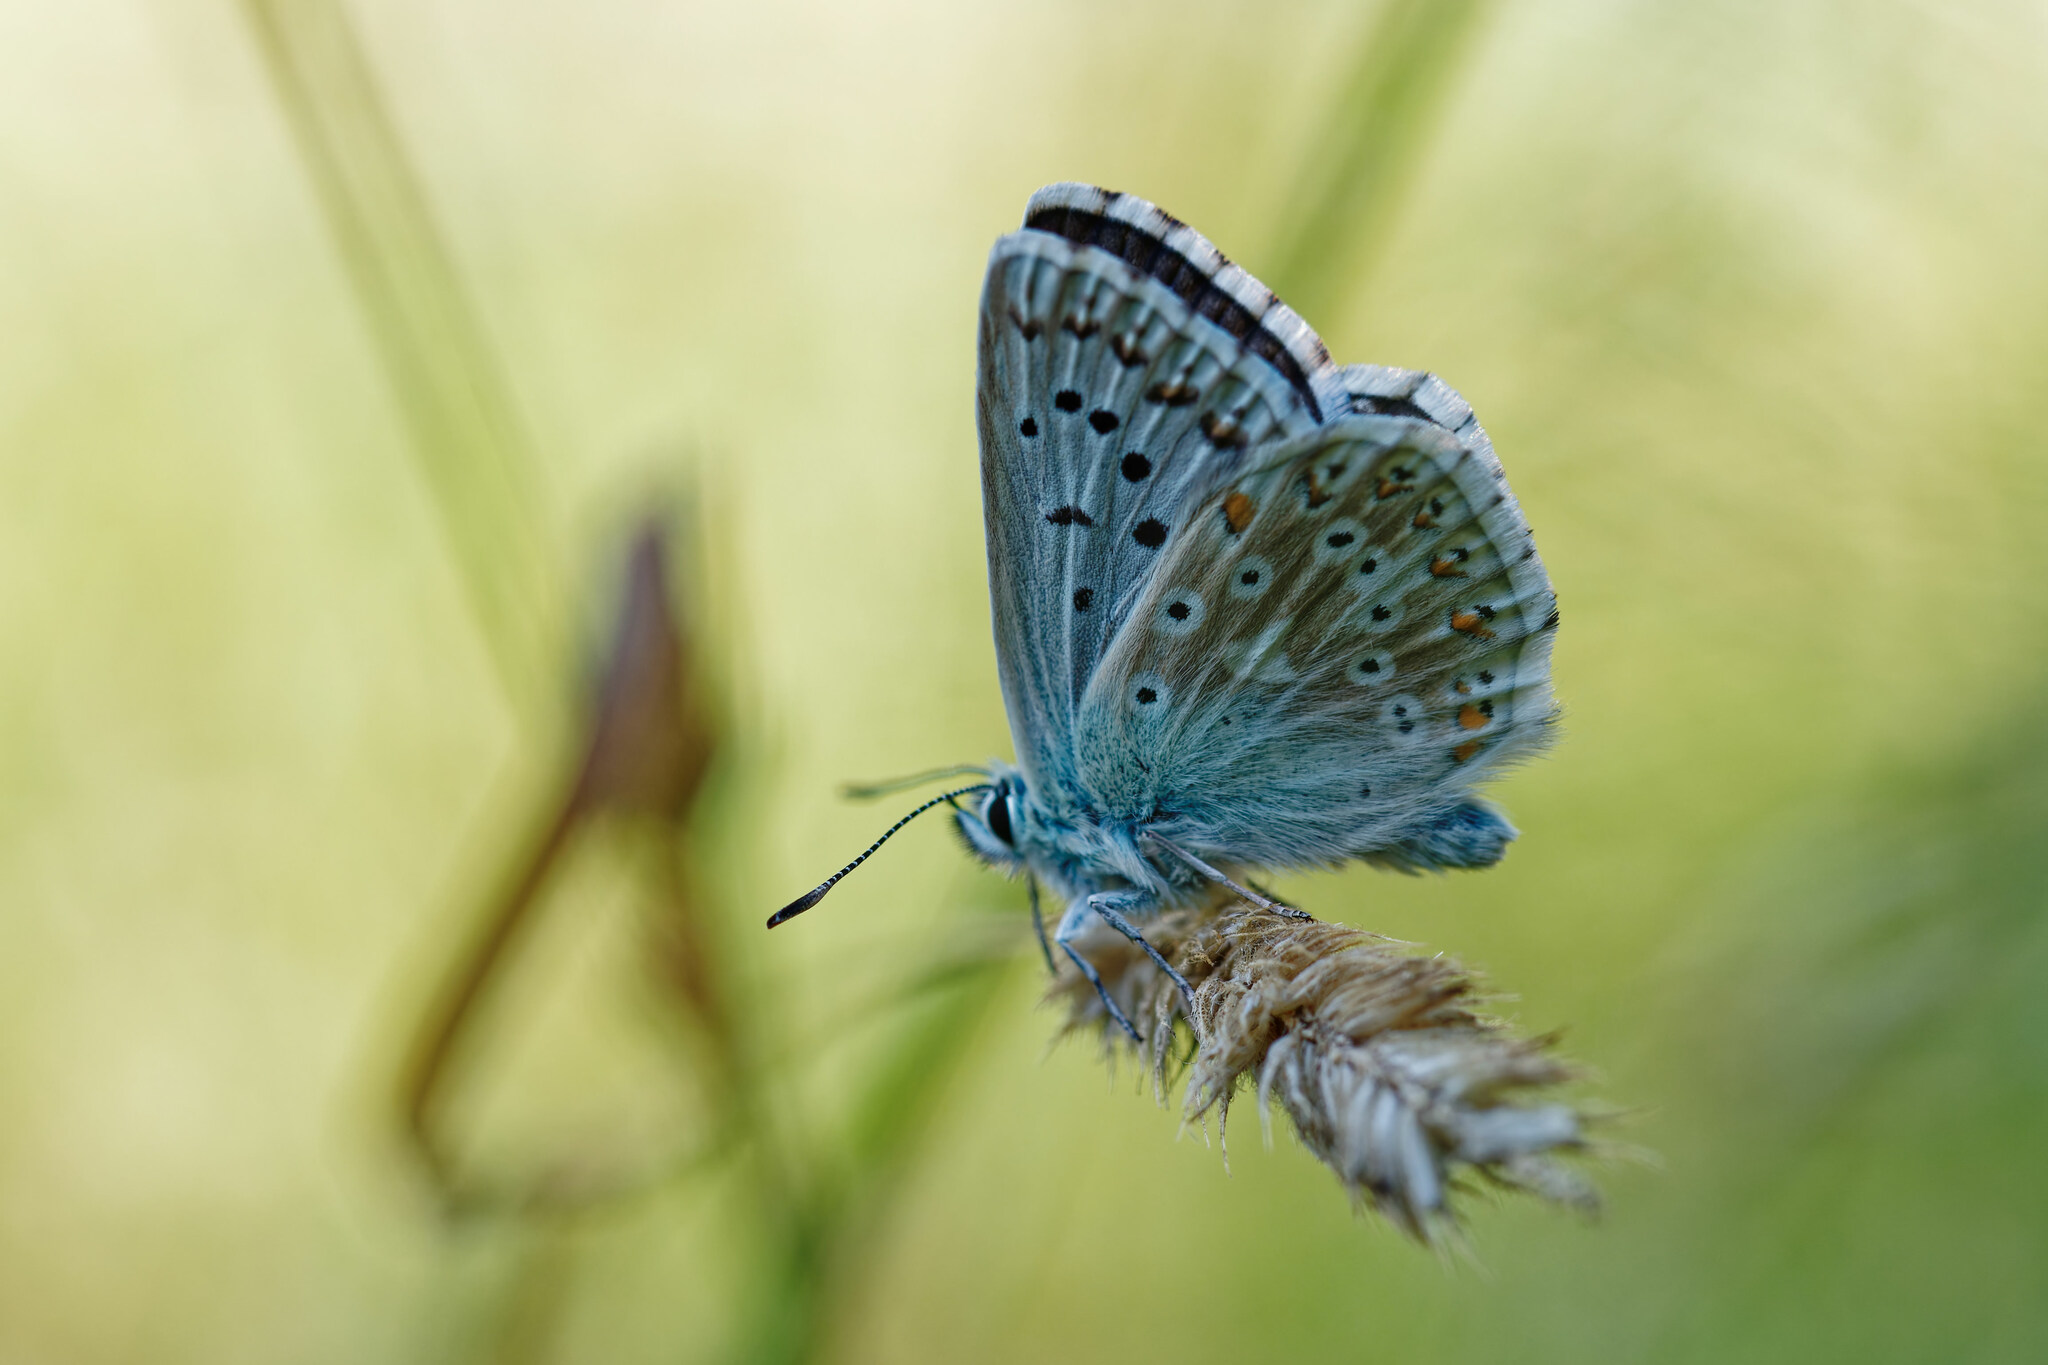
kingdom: Animalia
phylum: Arthropoda
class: Insecta
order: Lepidoptera
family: Lycaenidae
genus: Lysandra
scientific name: Lysandra coridon
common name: Chalkhill blue
